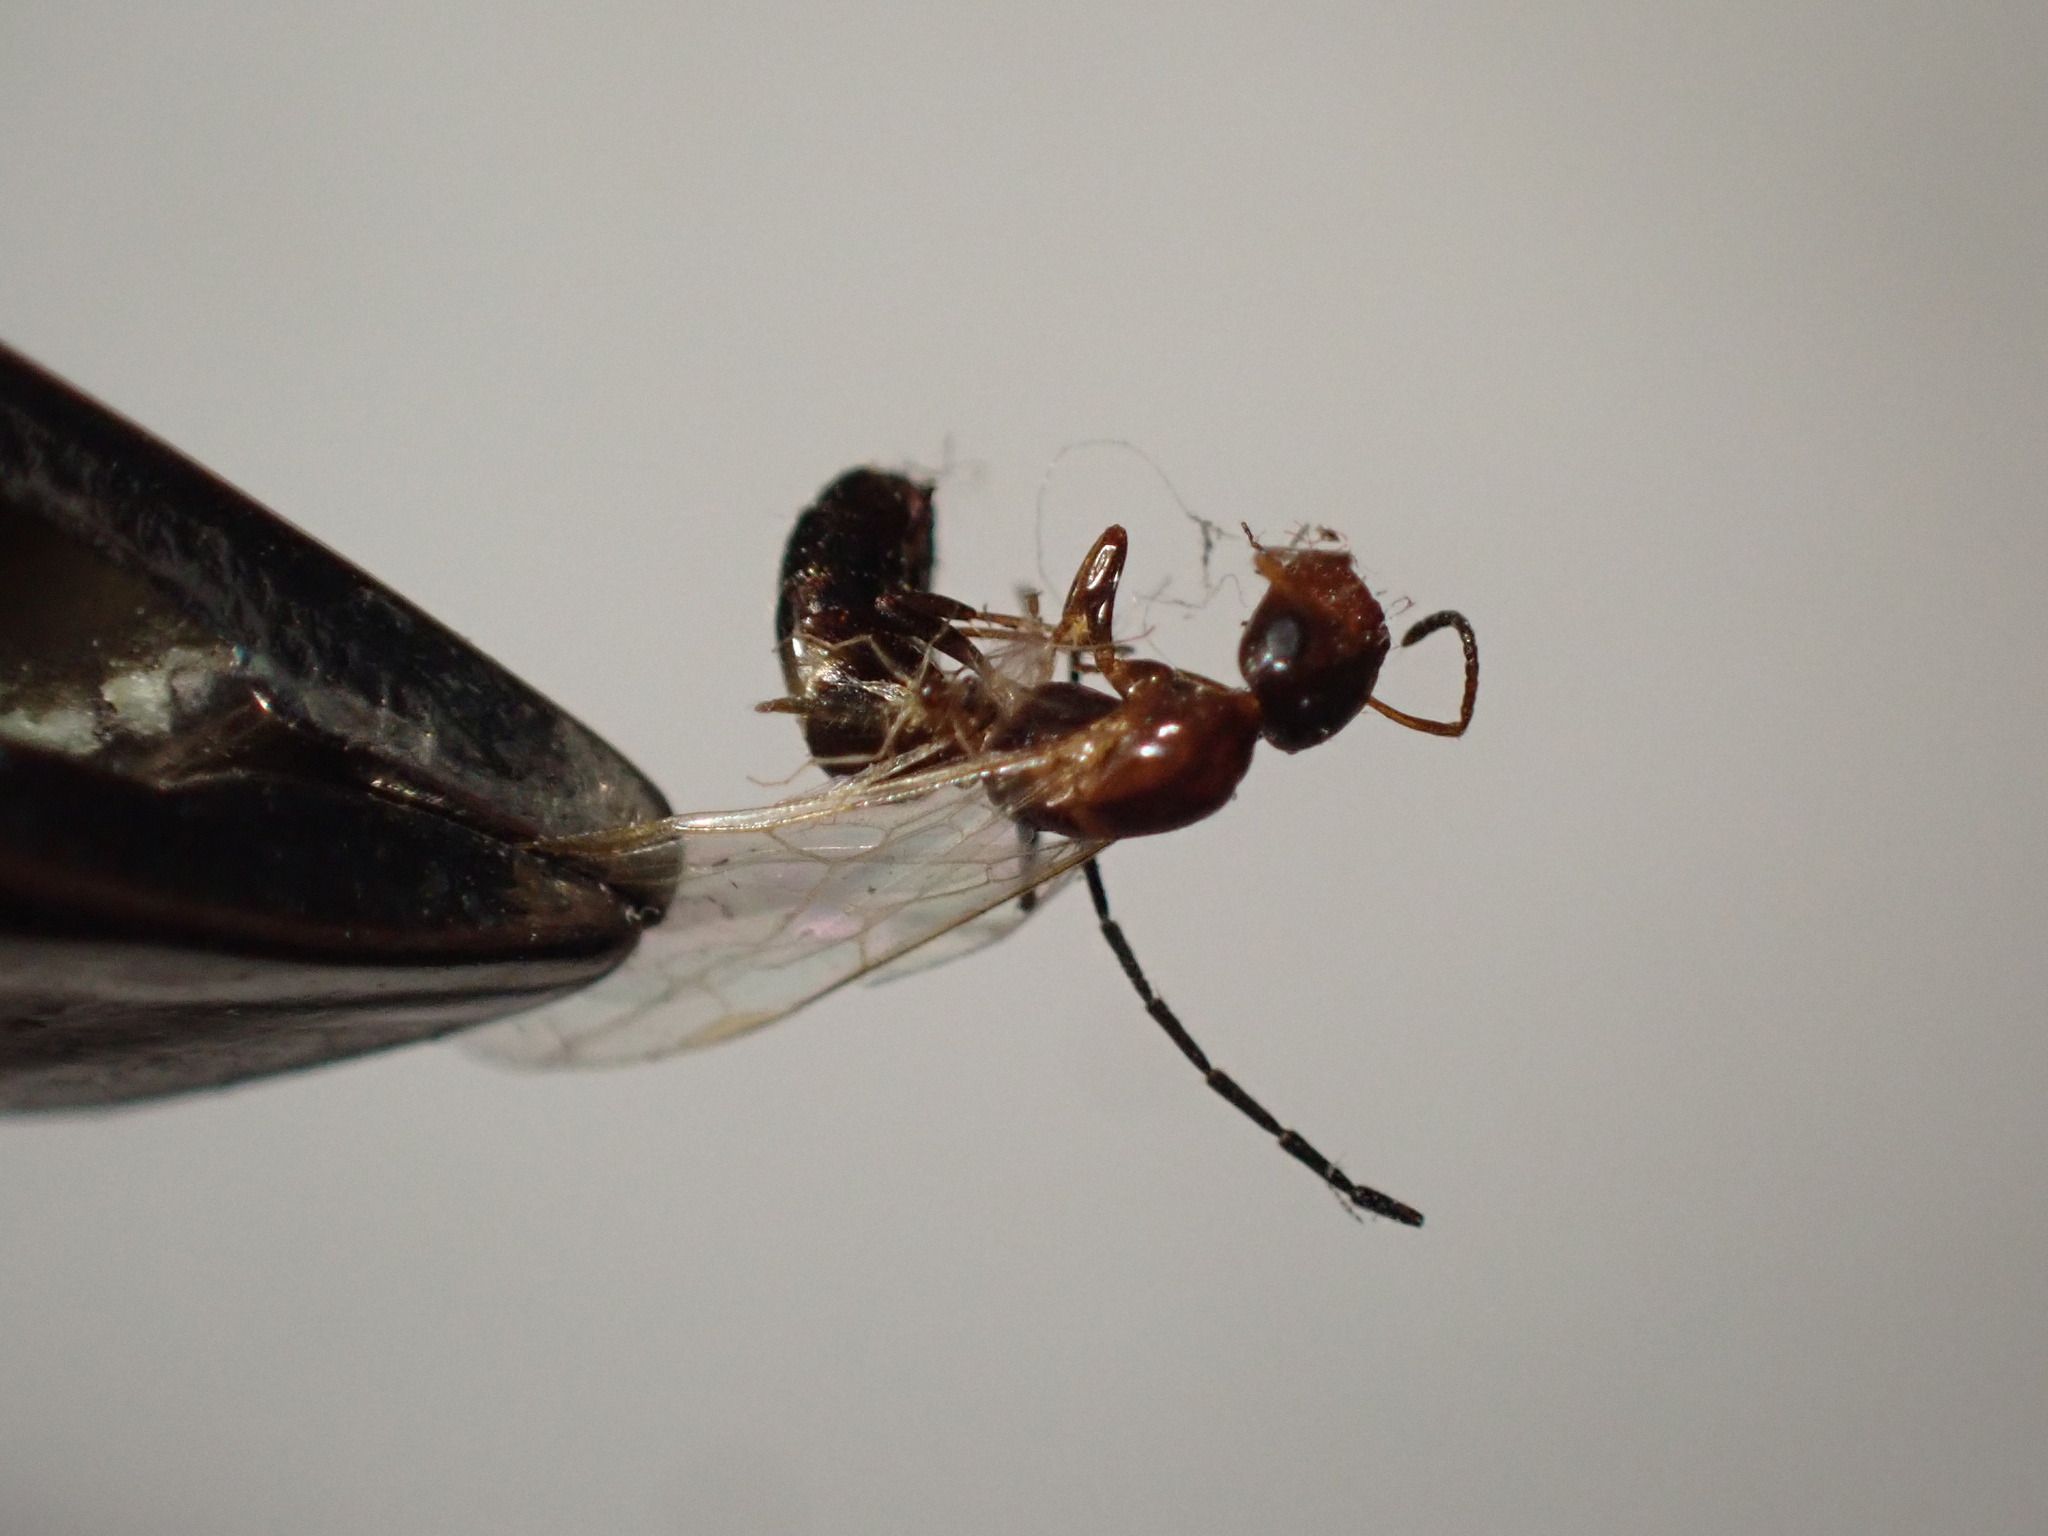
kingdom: Animalia
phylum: Arthropoda
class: Insecta
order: Hymenoptera
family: Formicidae
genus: Camponotus
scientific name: Camponotus truncatus
